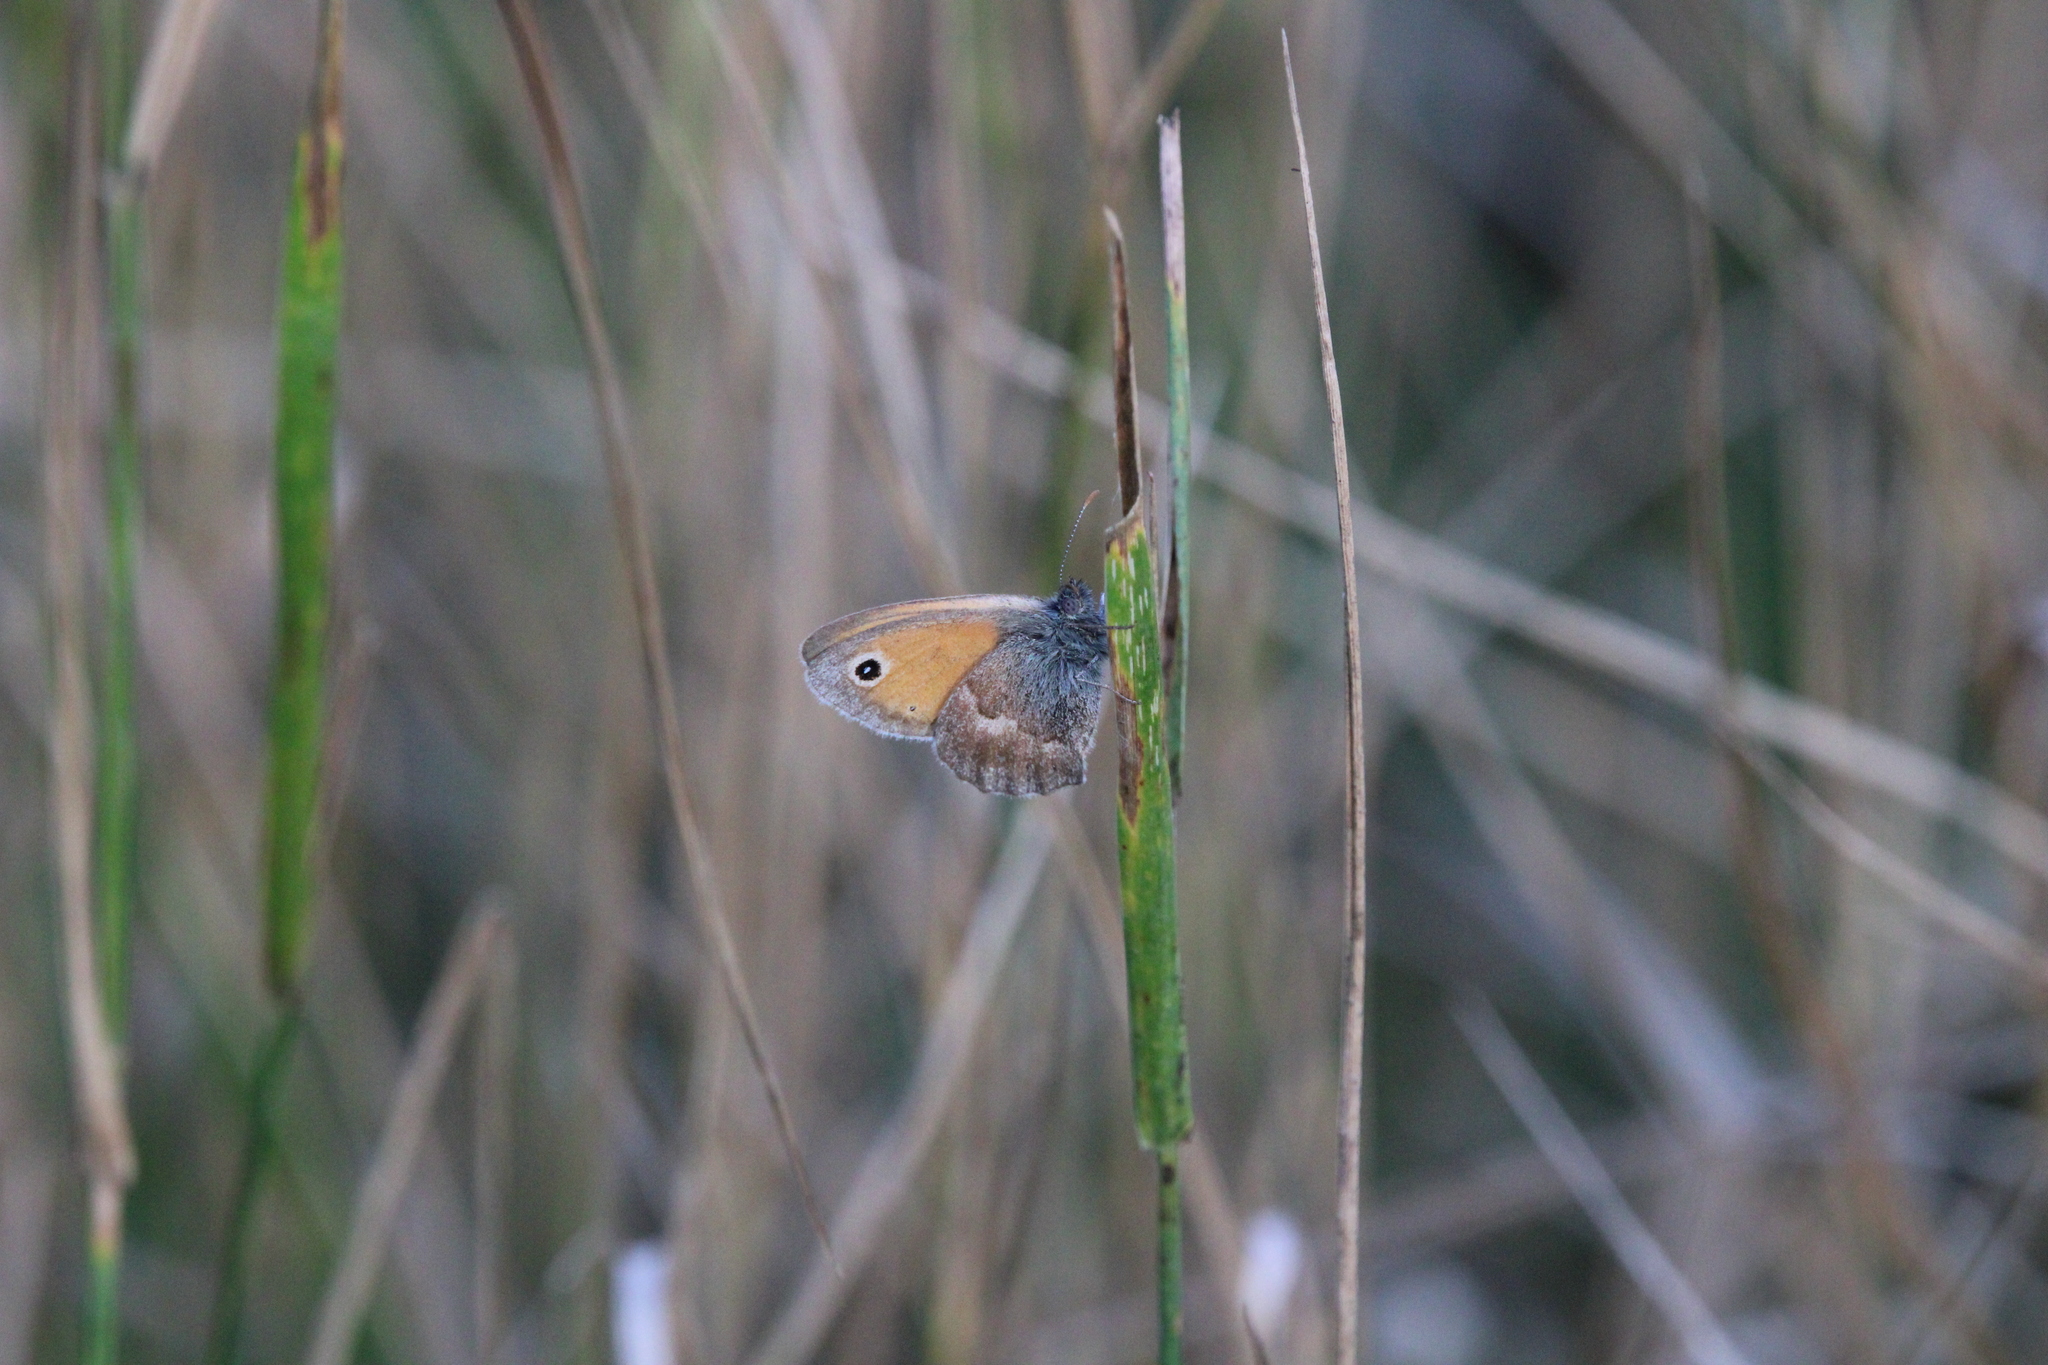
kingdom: Animalia
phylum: Arthropoda
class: Insecta
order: Lepidoptera
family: Nymphalidae
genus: Coenonympha
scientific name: Coenonympha pamphilus
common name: Small heath
